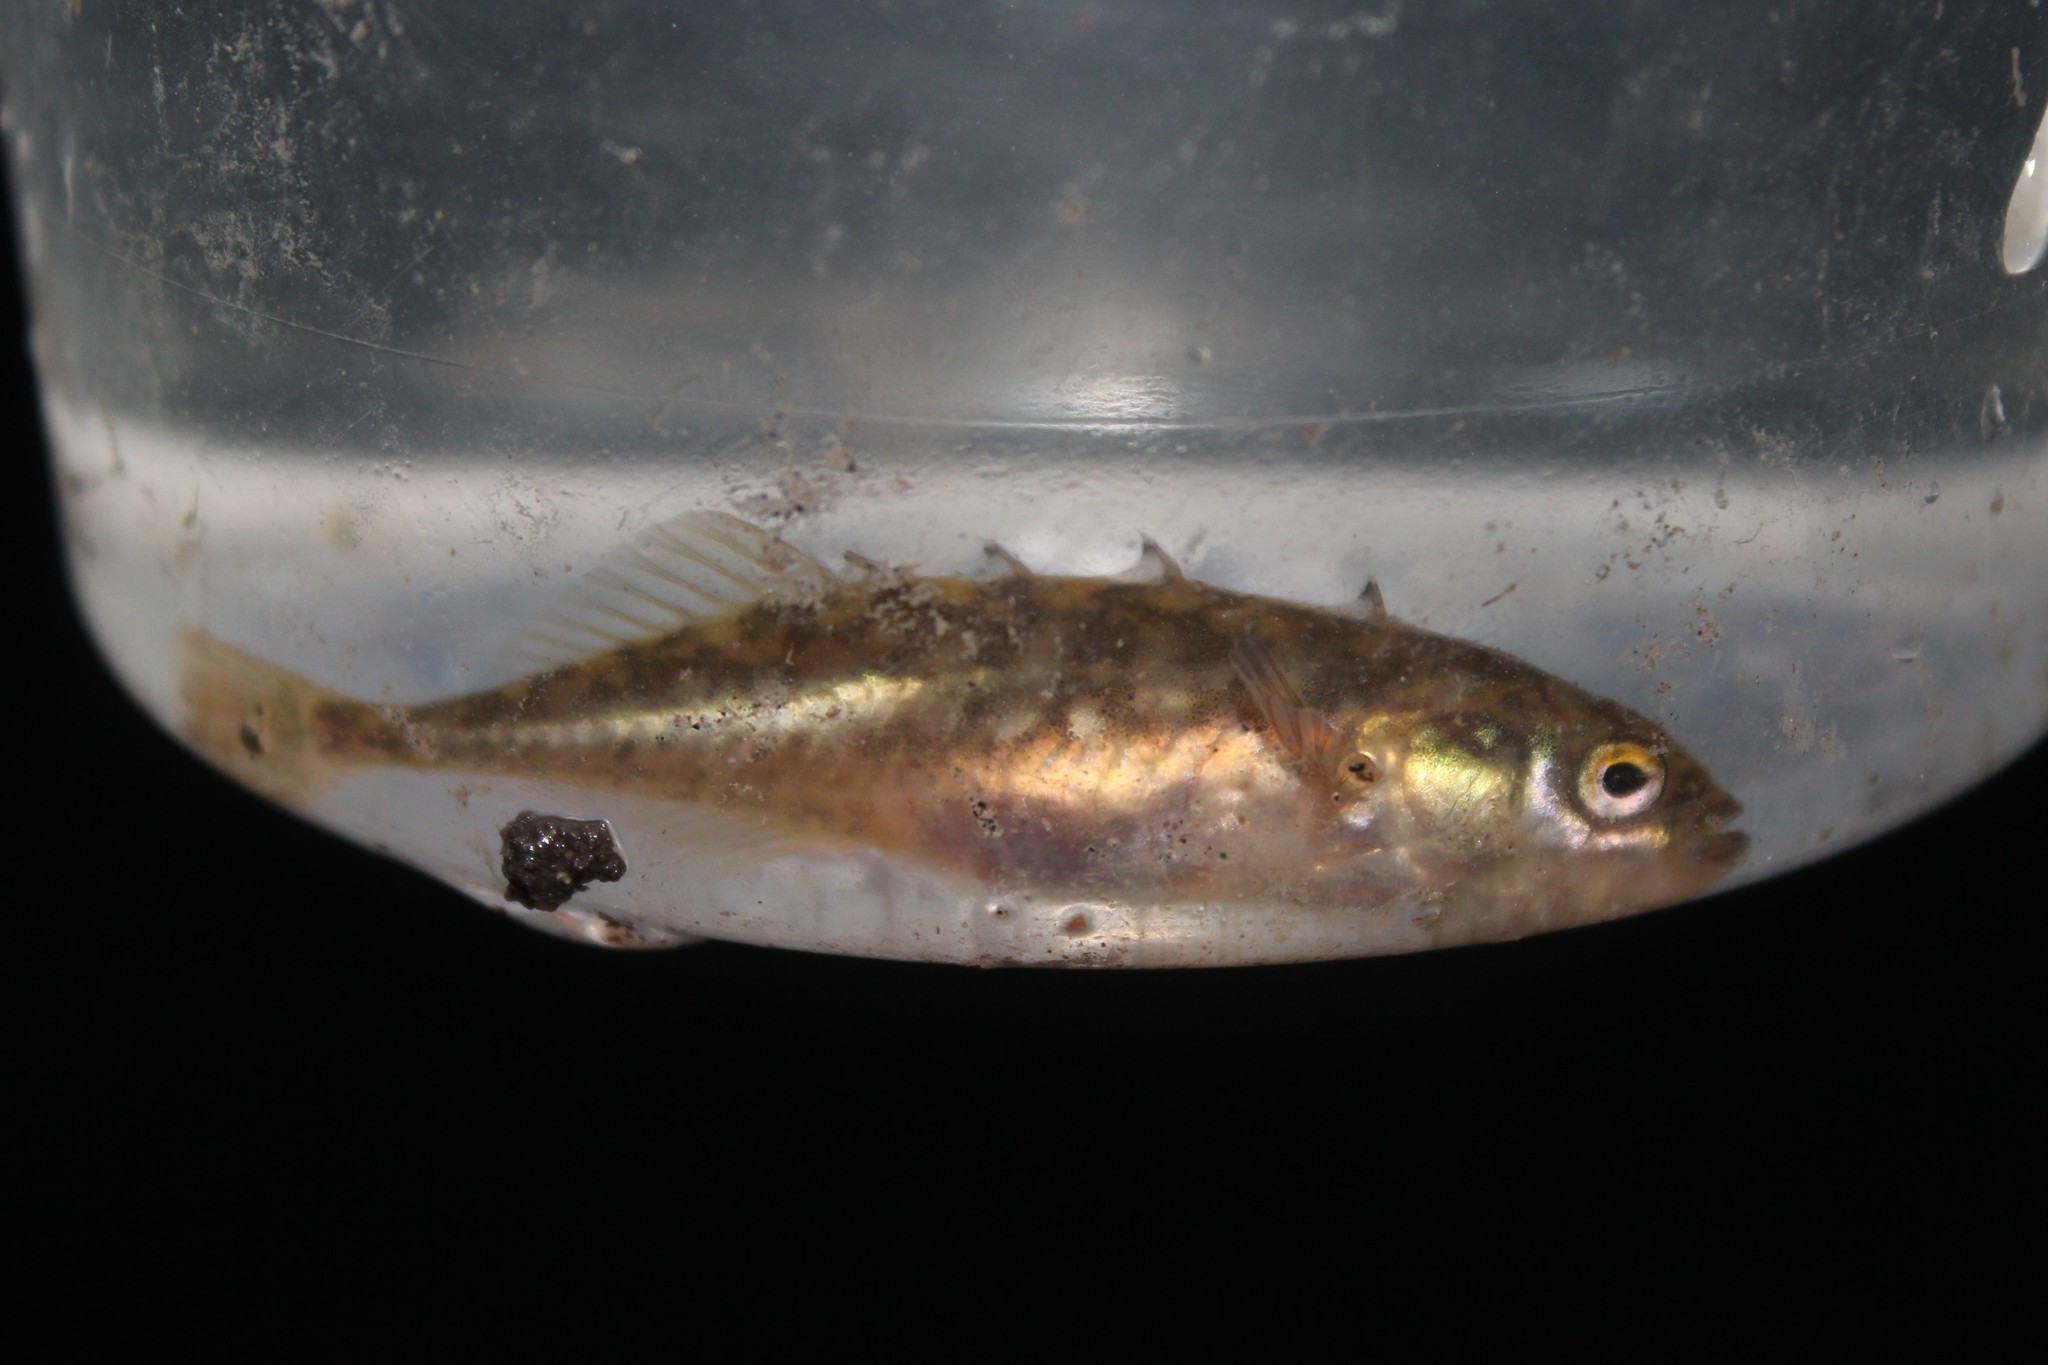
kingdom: Animalia
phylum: Chordata
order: Gasterosteiformes
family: Gasterosteidae
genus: Culaea
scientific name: Culaea inconstans
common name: Brook stickleback
